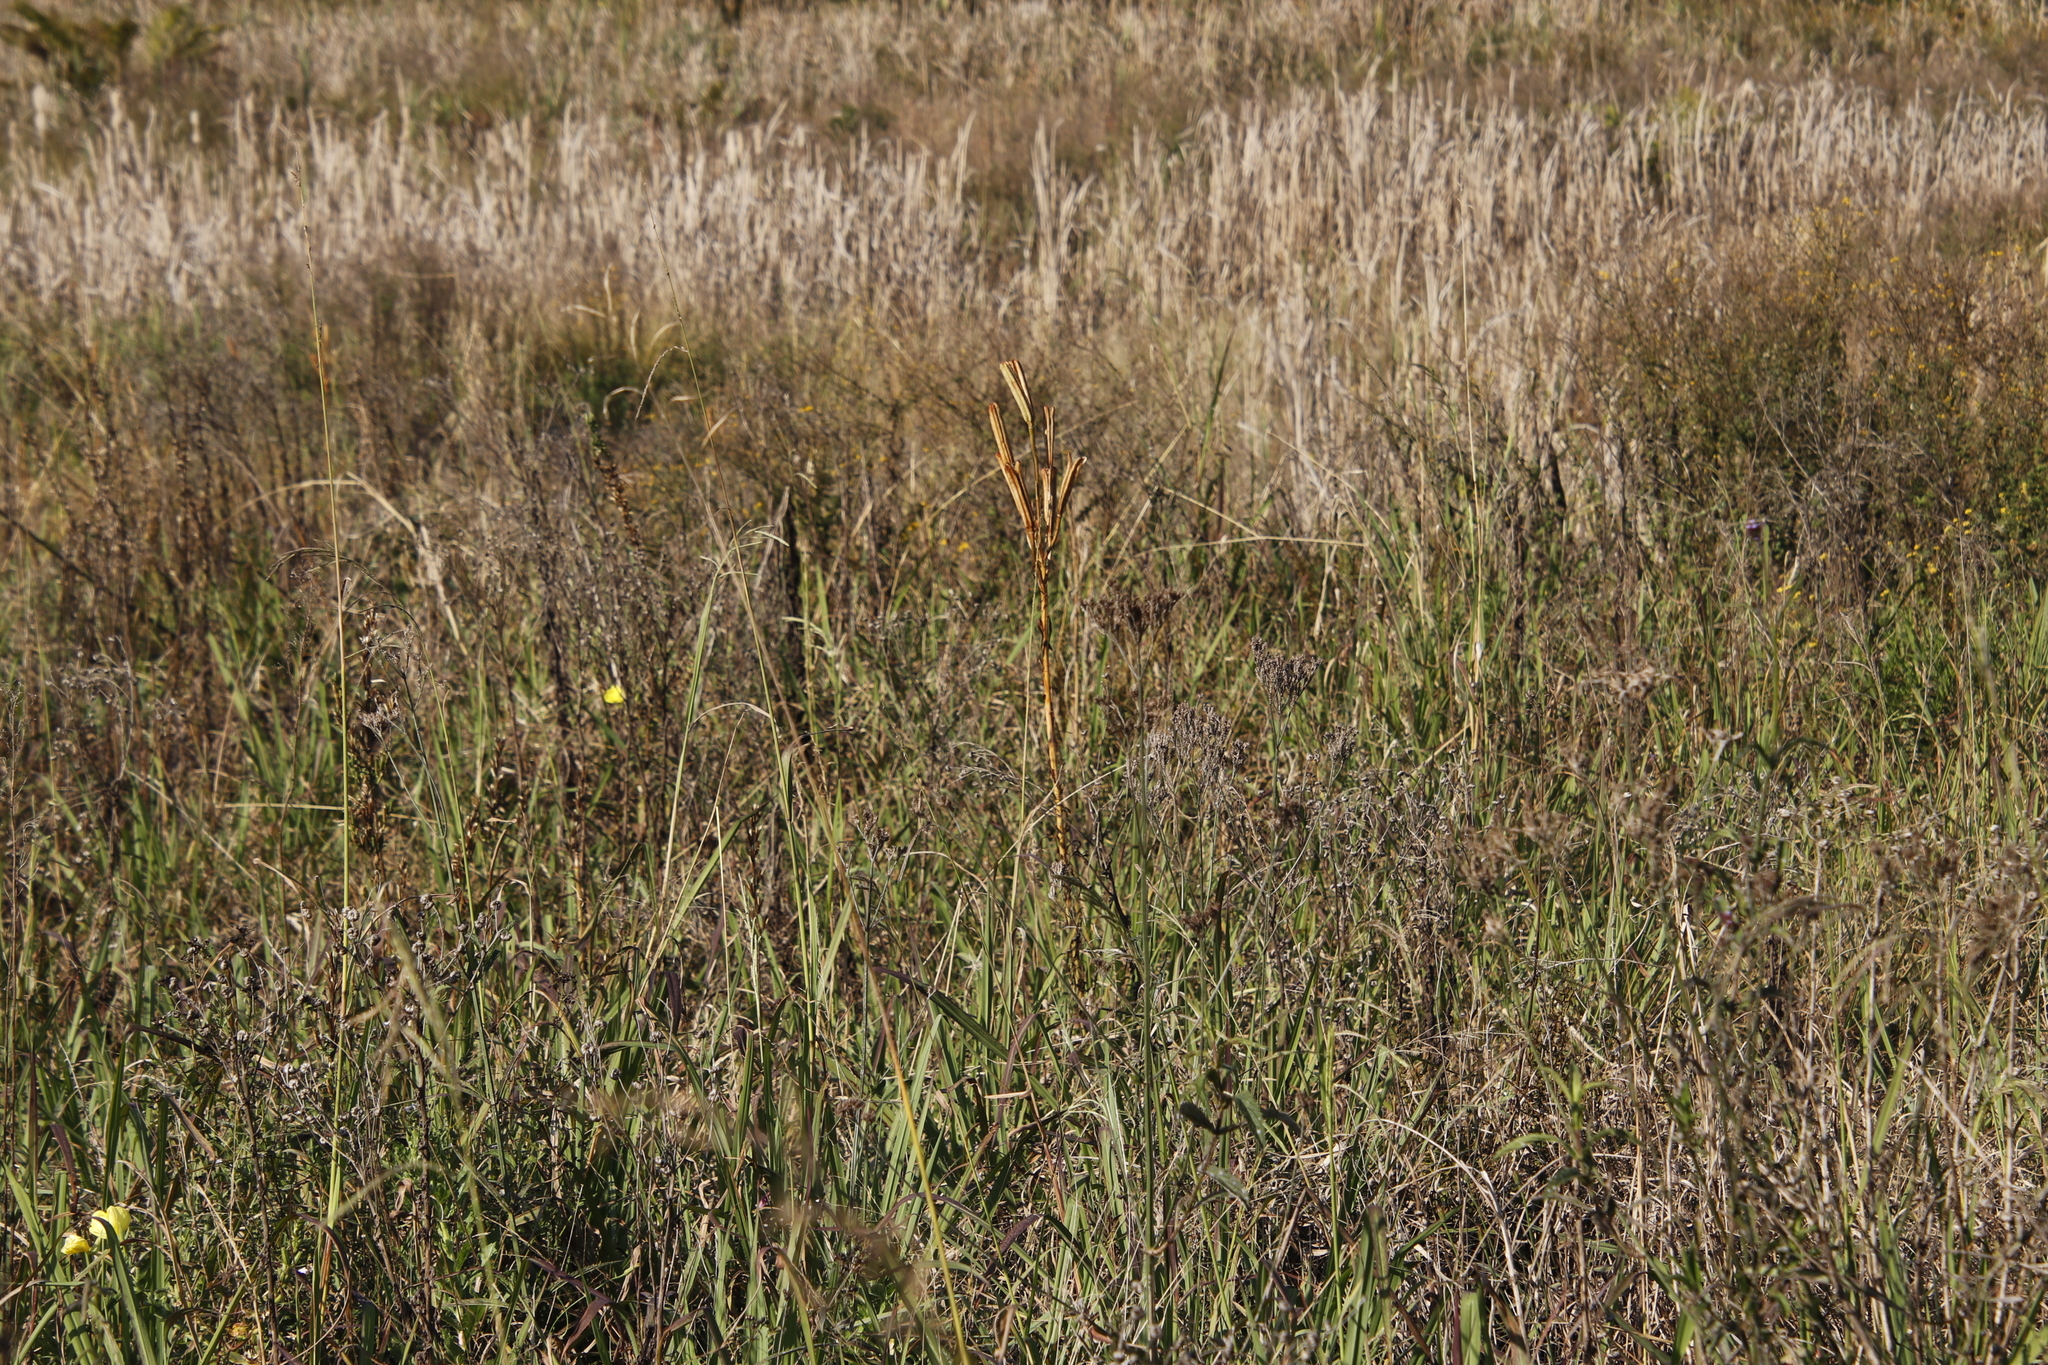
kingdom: Plantae
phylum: Tracheophyta
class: Liliopsida
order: Liliales
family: Liliaceae
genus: Lilium
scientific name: Lilium formosanum
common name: Formosa lily
